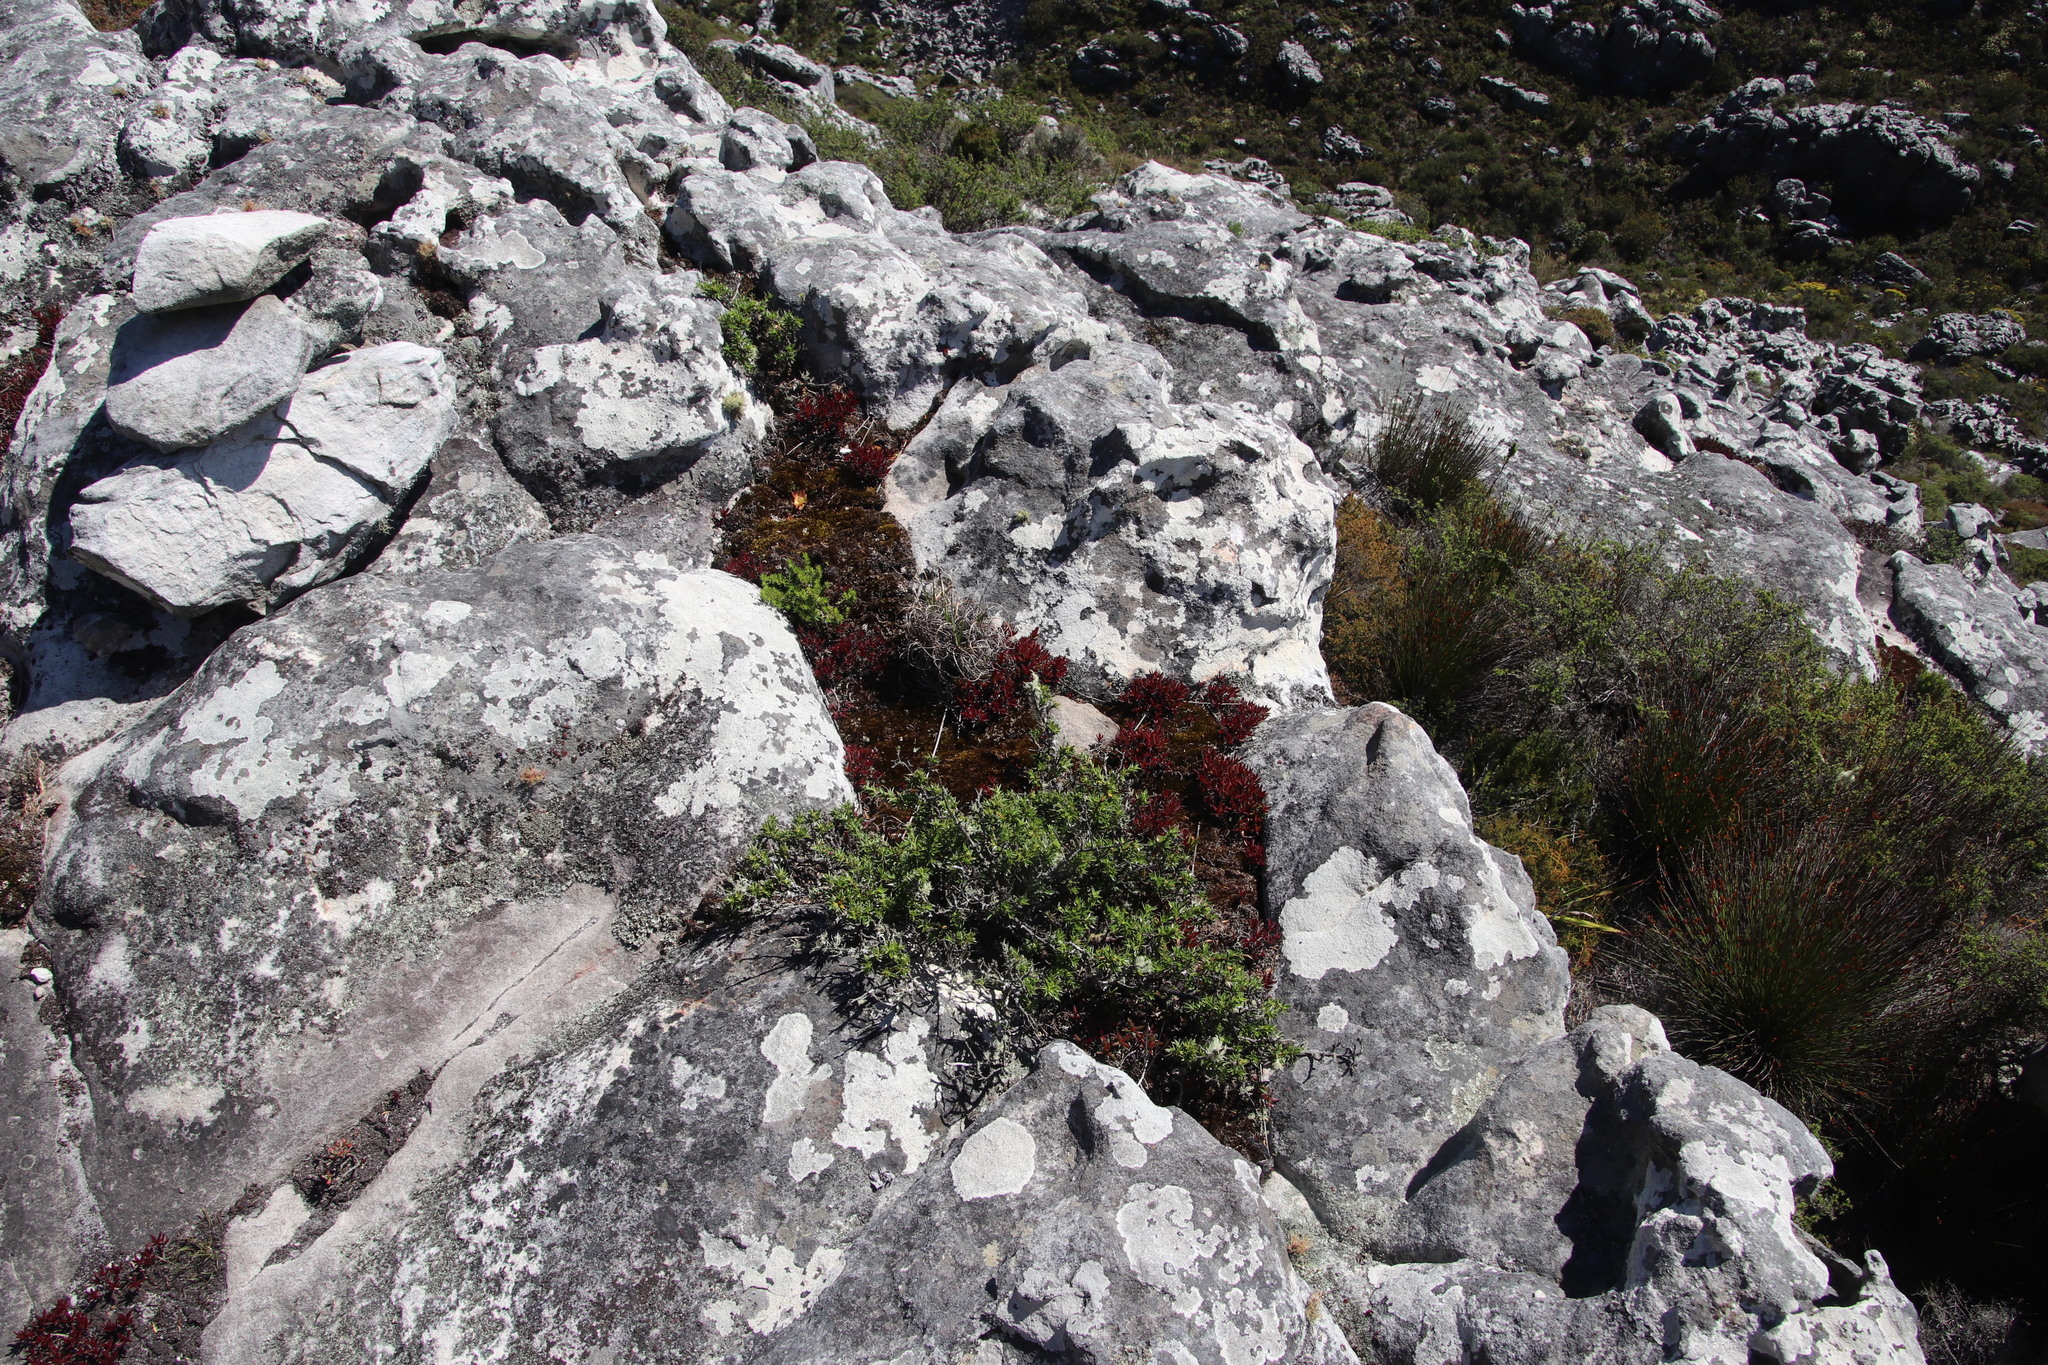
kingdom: Plantae
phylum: Tracheophyta
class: Magnoliopsida
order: Saxifragales
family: Crassulaceae
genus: Crassula
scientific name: Crassula obtusa
